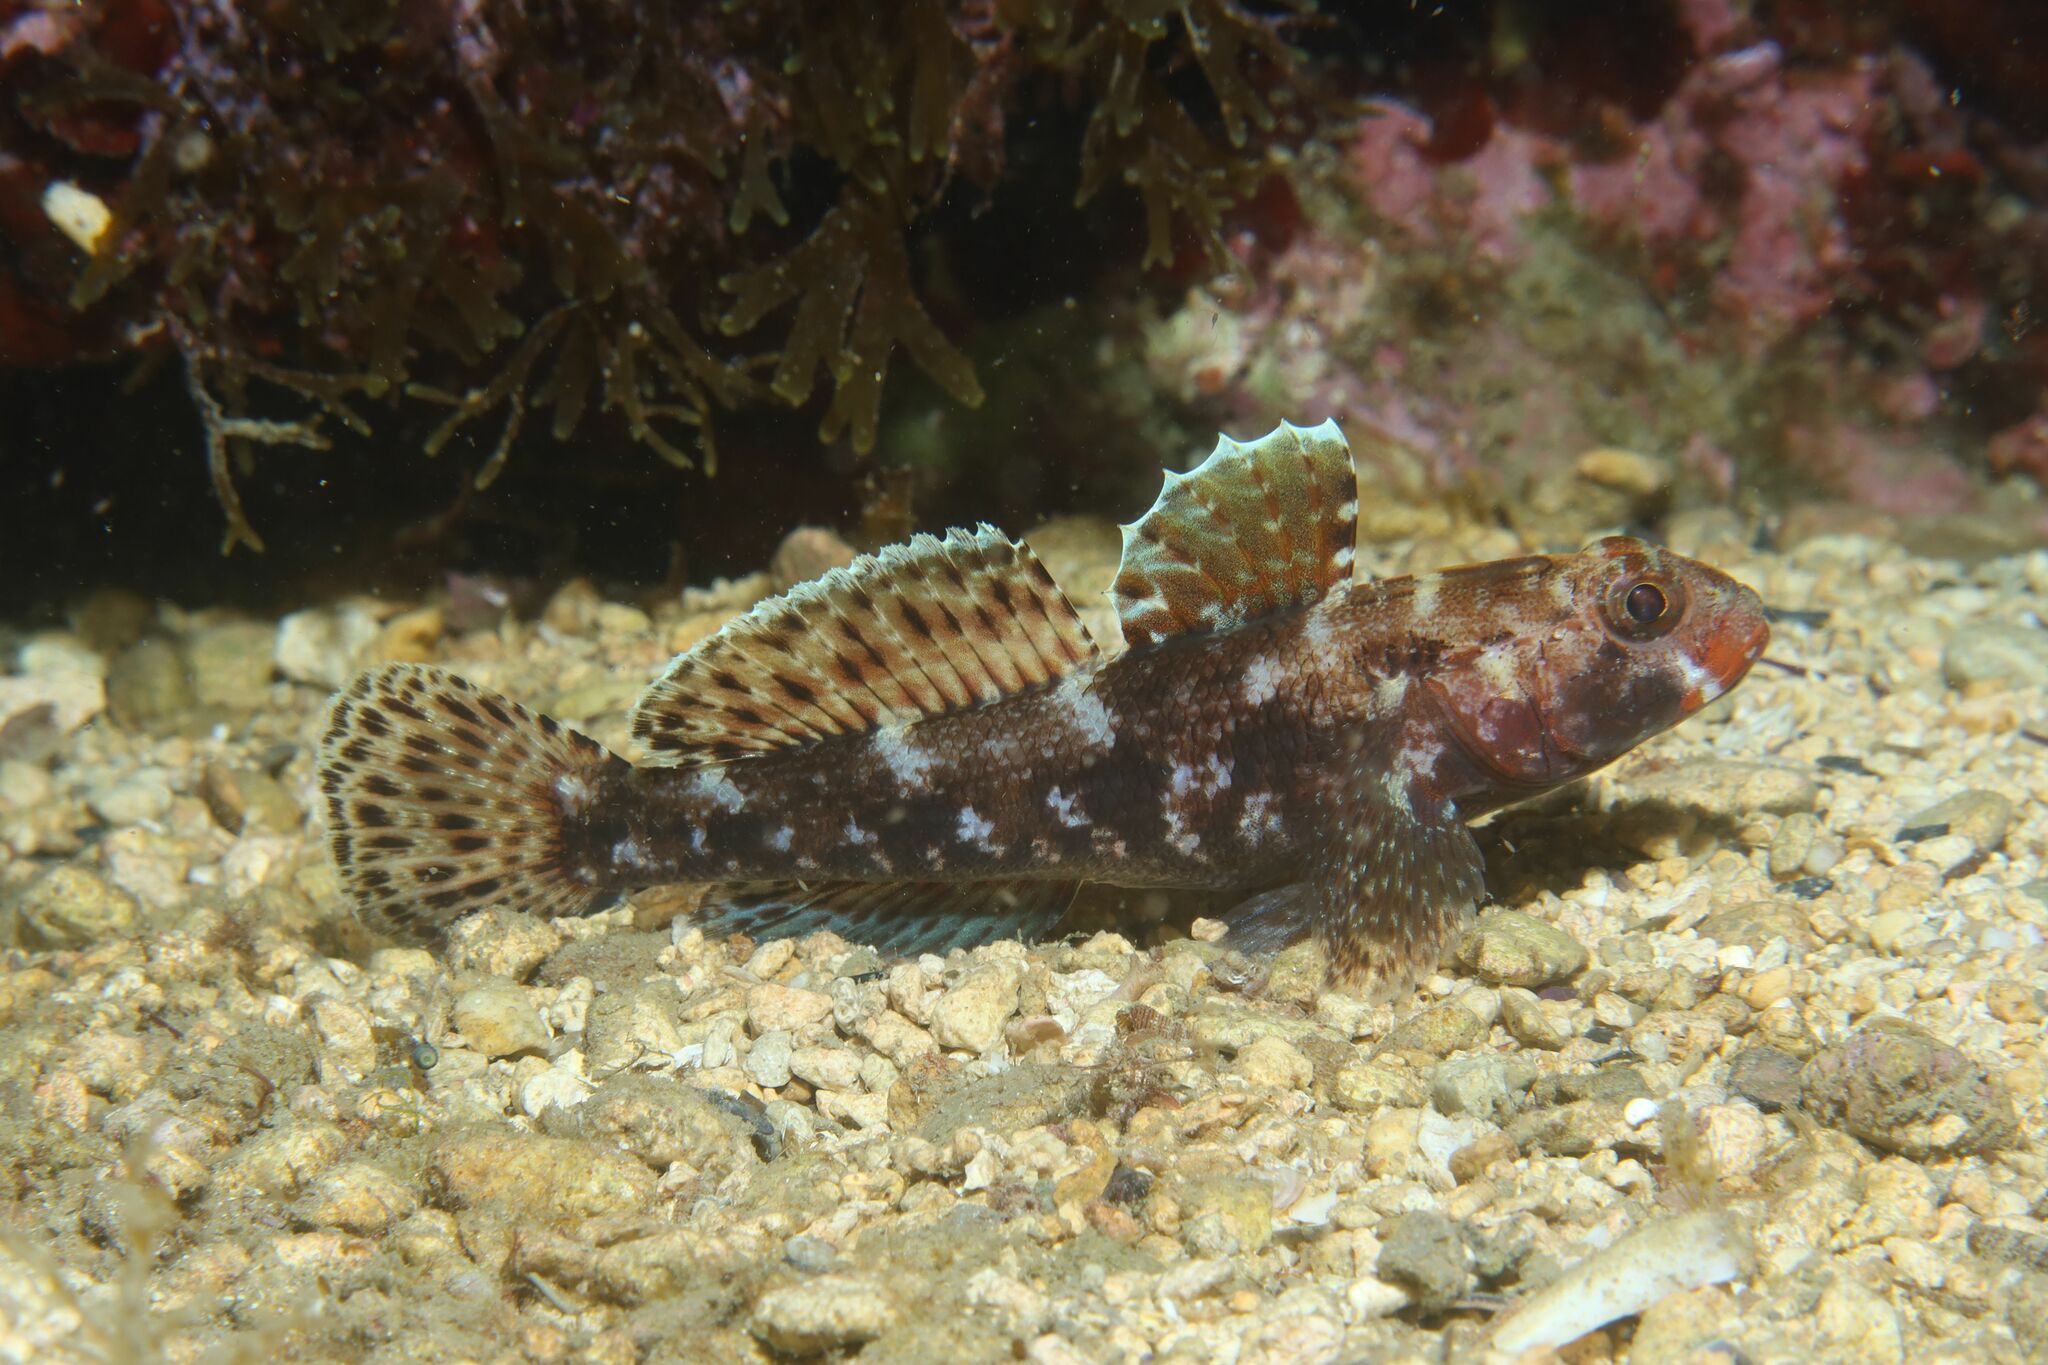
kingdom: Animalia
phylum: Chordata
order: Perciformes
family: Gobiidae
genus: Gobius
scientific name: Gobius cruentatus
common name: Red-mouthed goby
